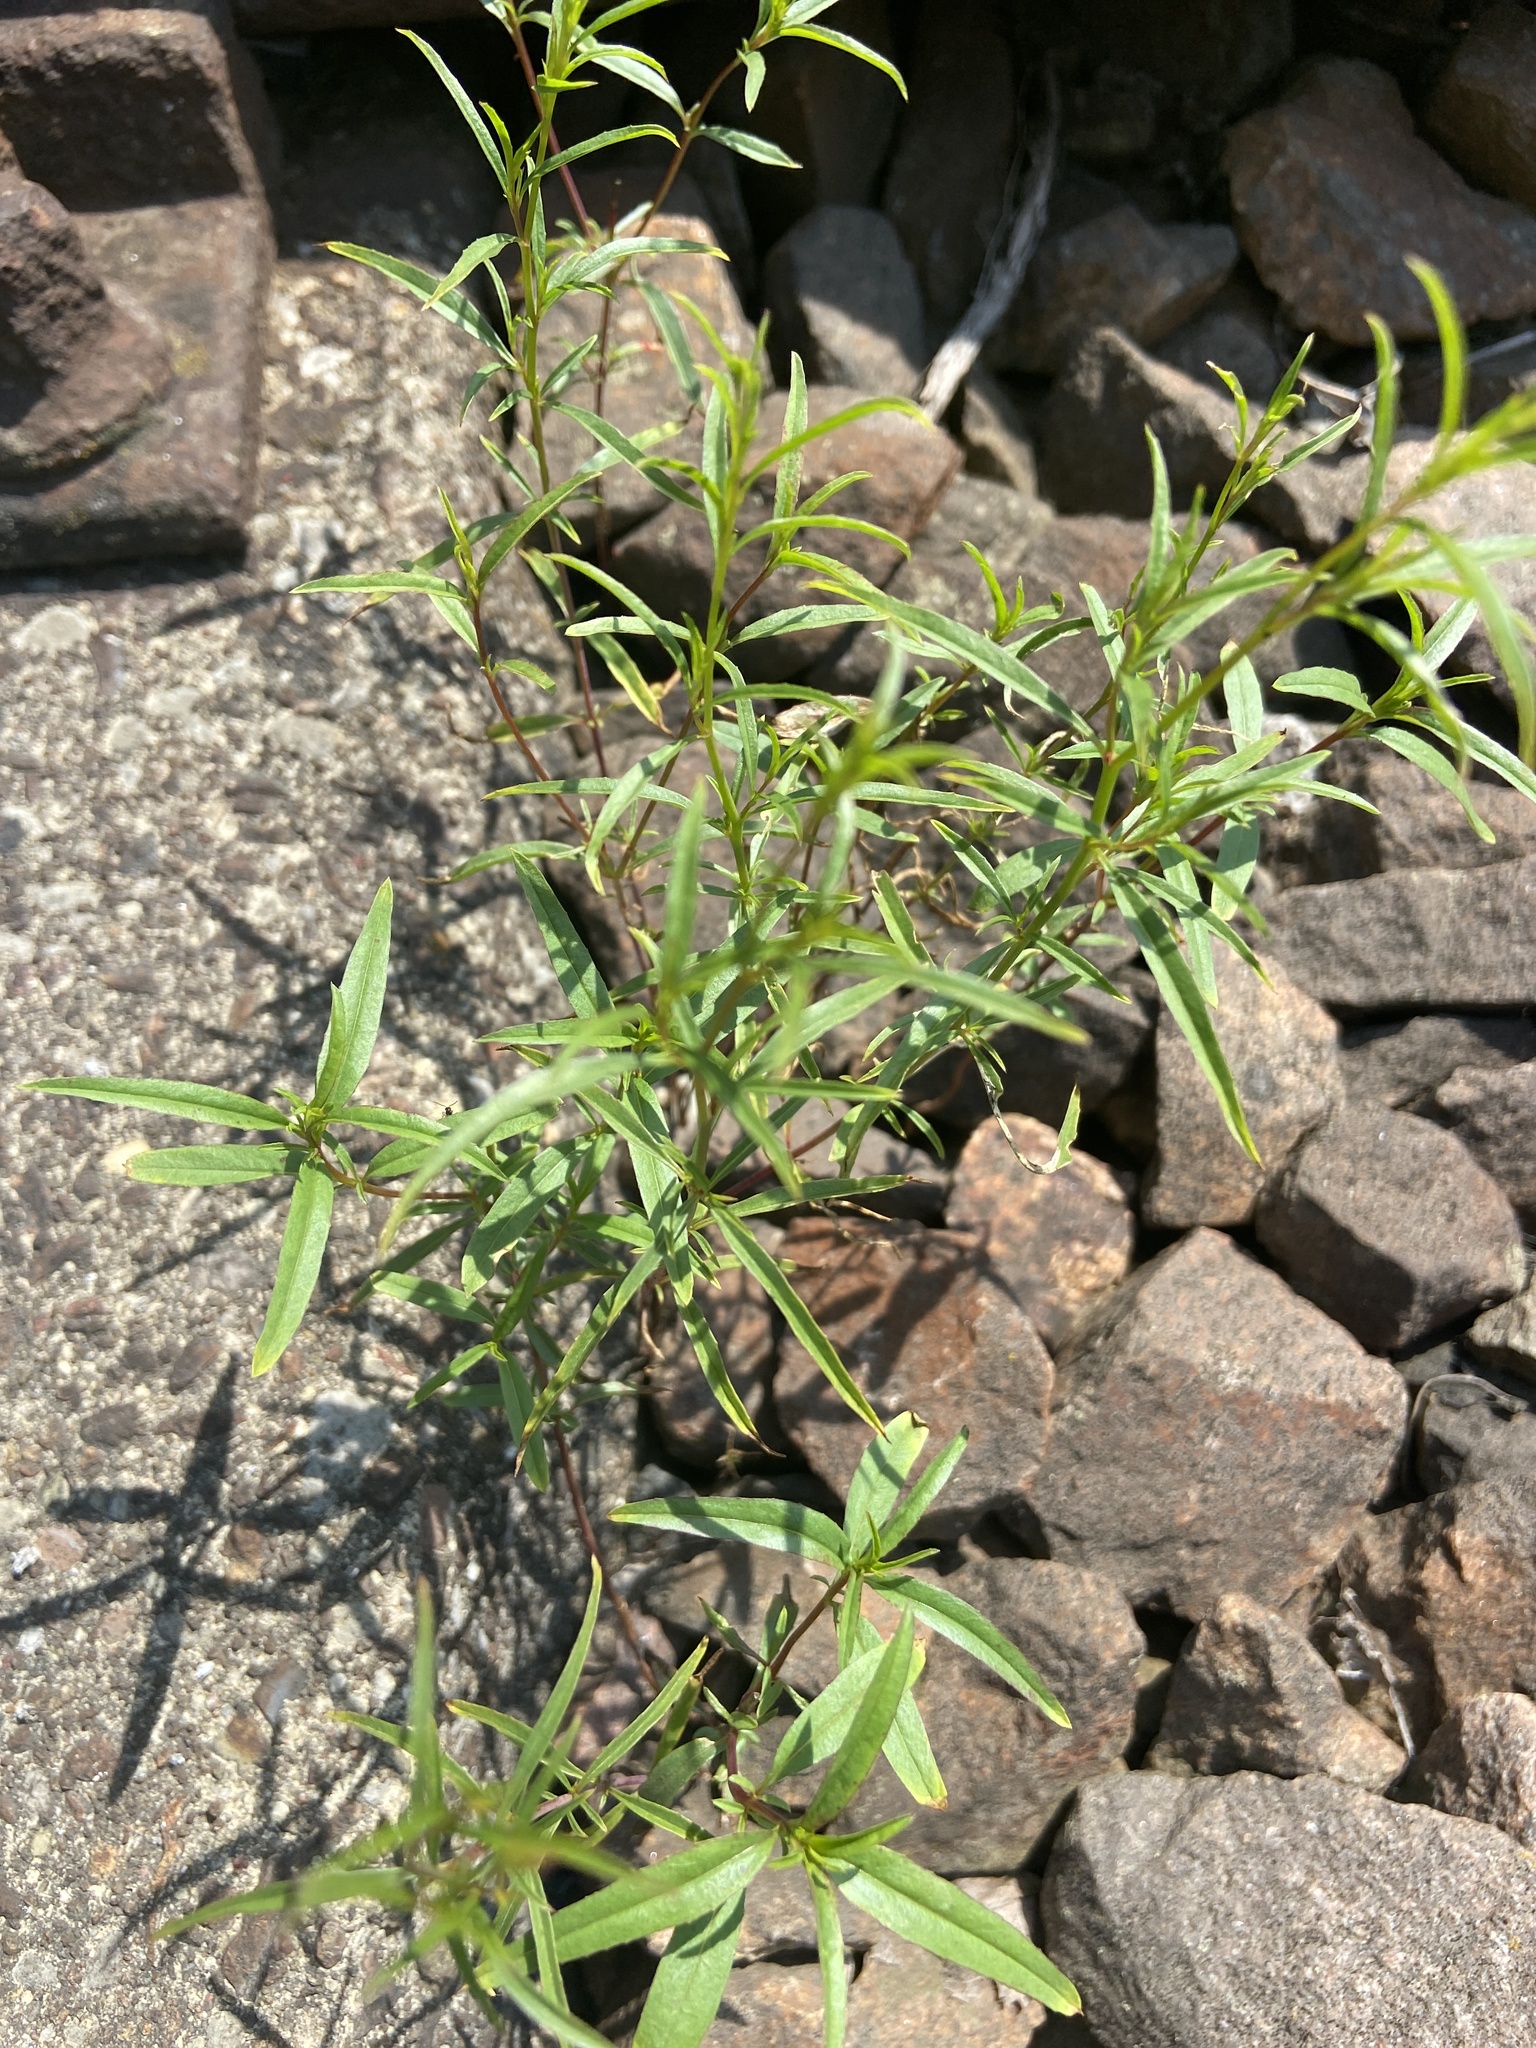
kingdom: Plantae
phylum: Tracheophyta
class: Magnoliopsida
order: Myrtales
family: Onagraceae
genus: Epilobium
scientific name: Epilobium brachycarpum
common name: Annual willowherb
